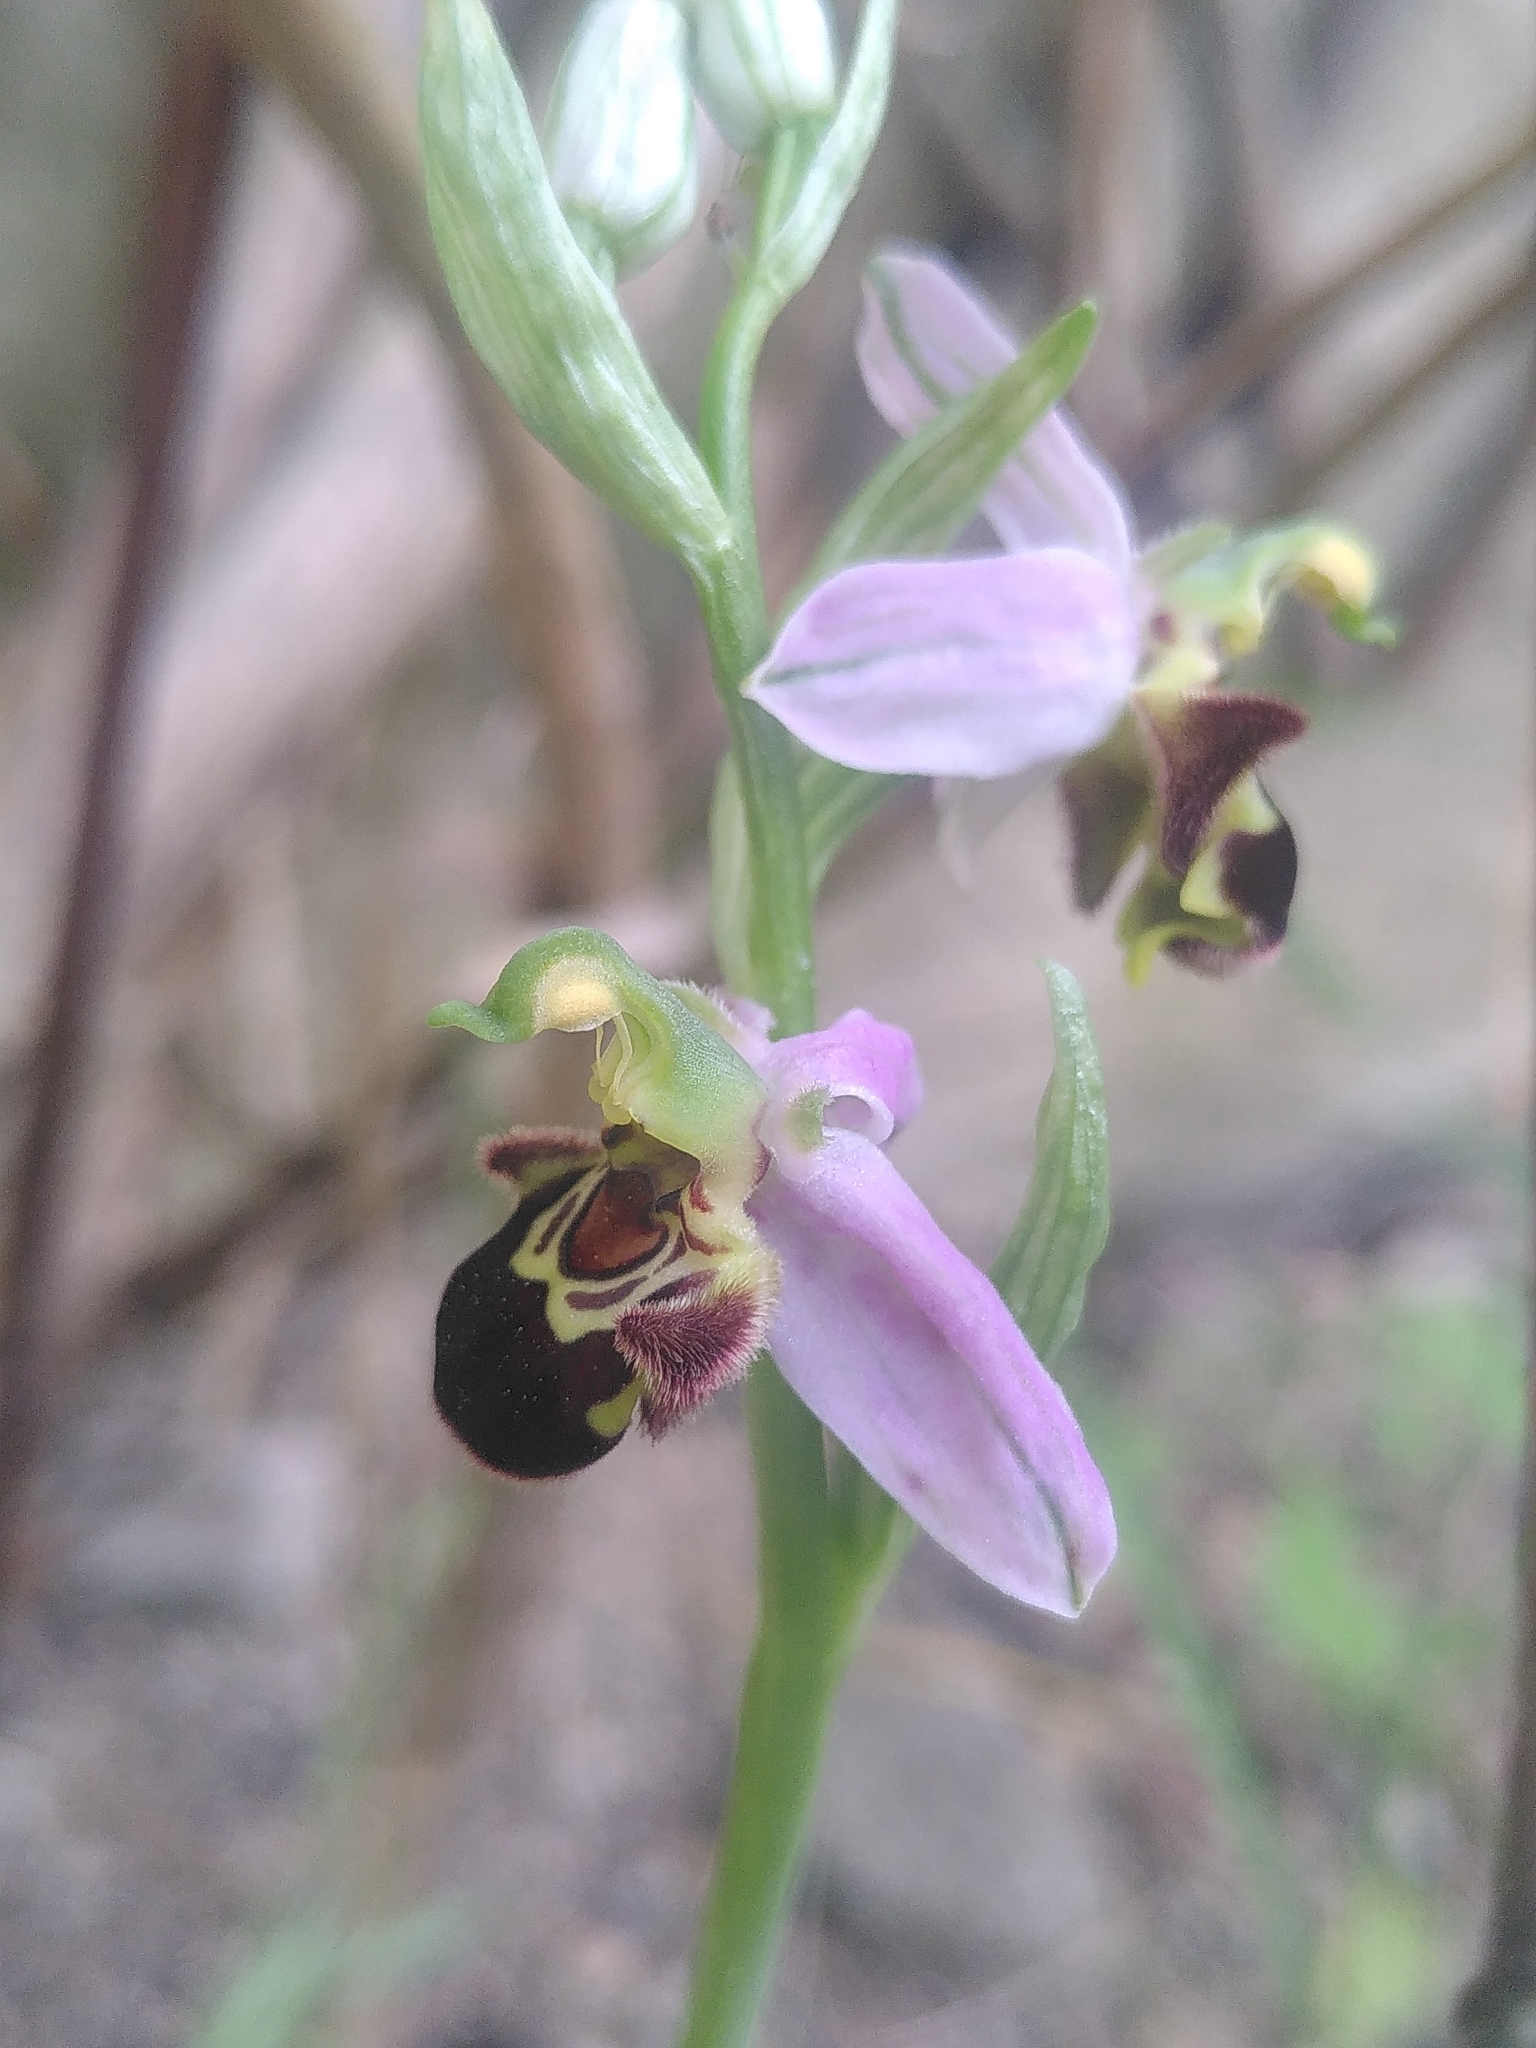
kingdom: Plantae
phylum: Tracheophyta
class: Liliopsida
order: Asparagales
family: Orchidaceae
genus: Ophrys
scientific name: Ophrys apifera
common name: Bee orchid
